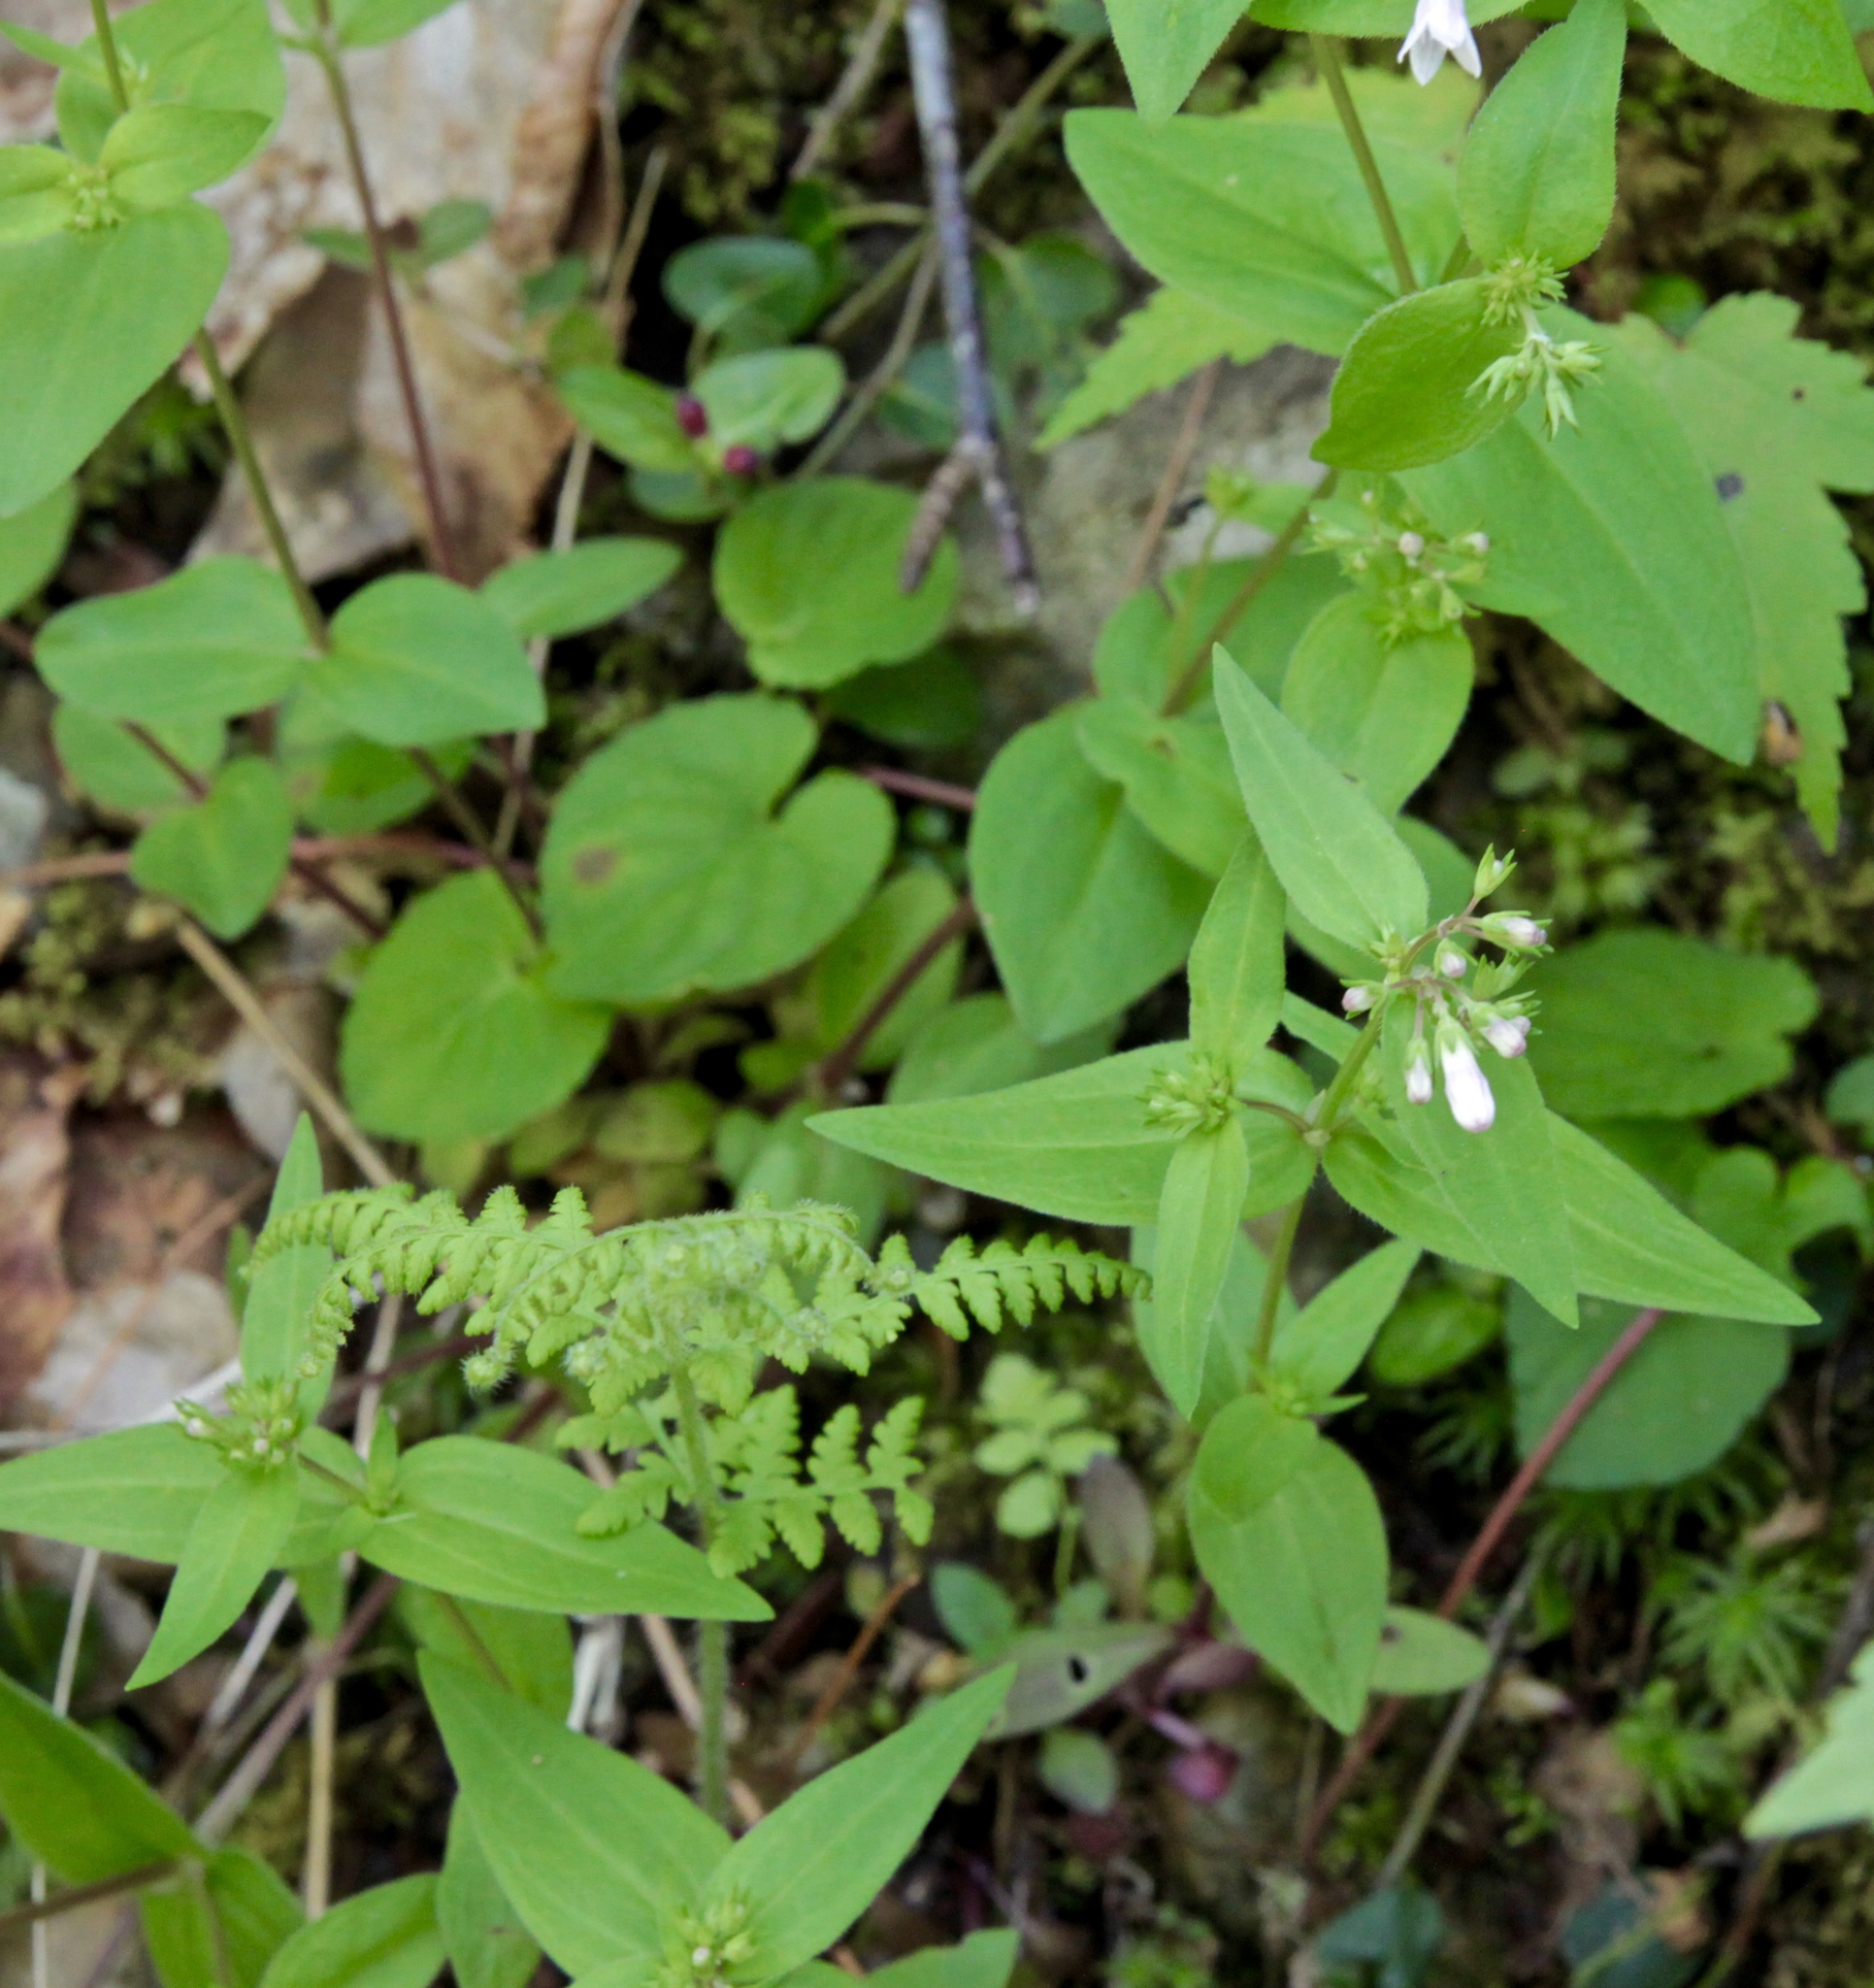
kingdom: Plantae
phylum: Tracheophyta
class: Magnoliopsida
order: Gentianales
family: Rubiaceae
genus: Houstonia
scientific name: Houstonia purpurea
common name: Summer bluet
